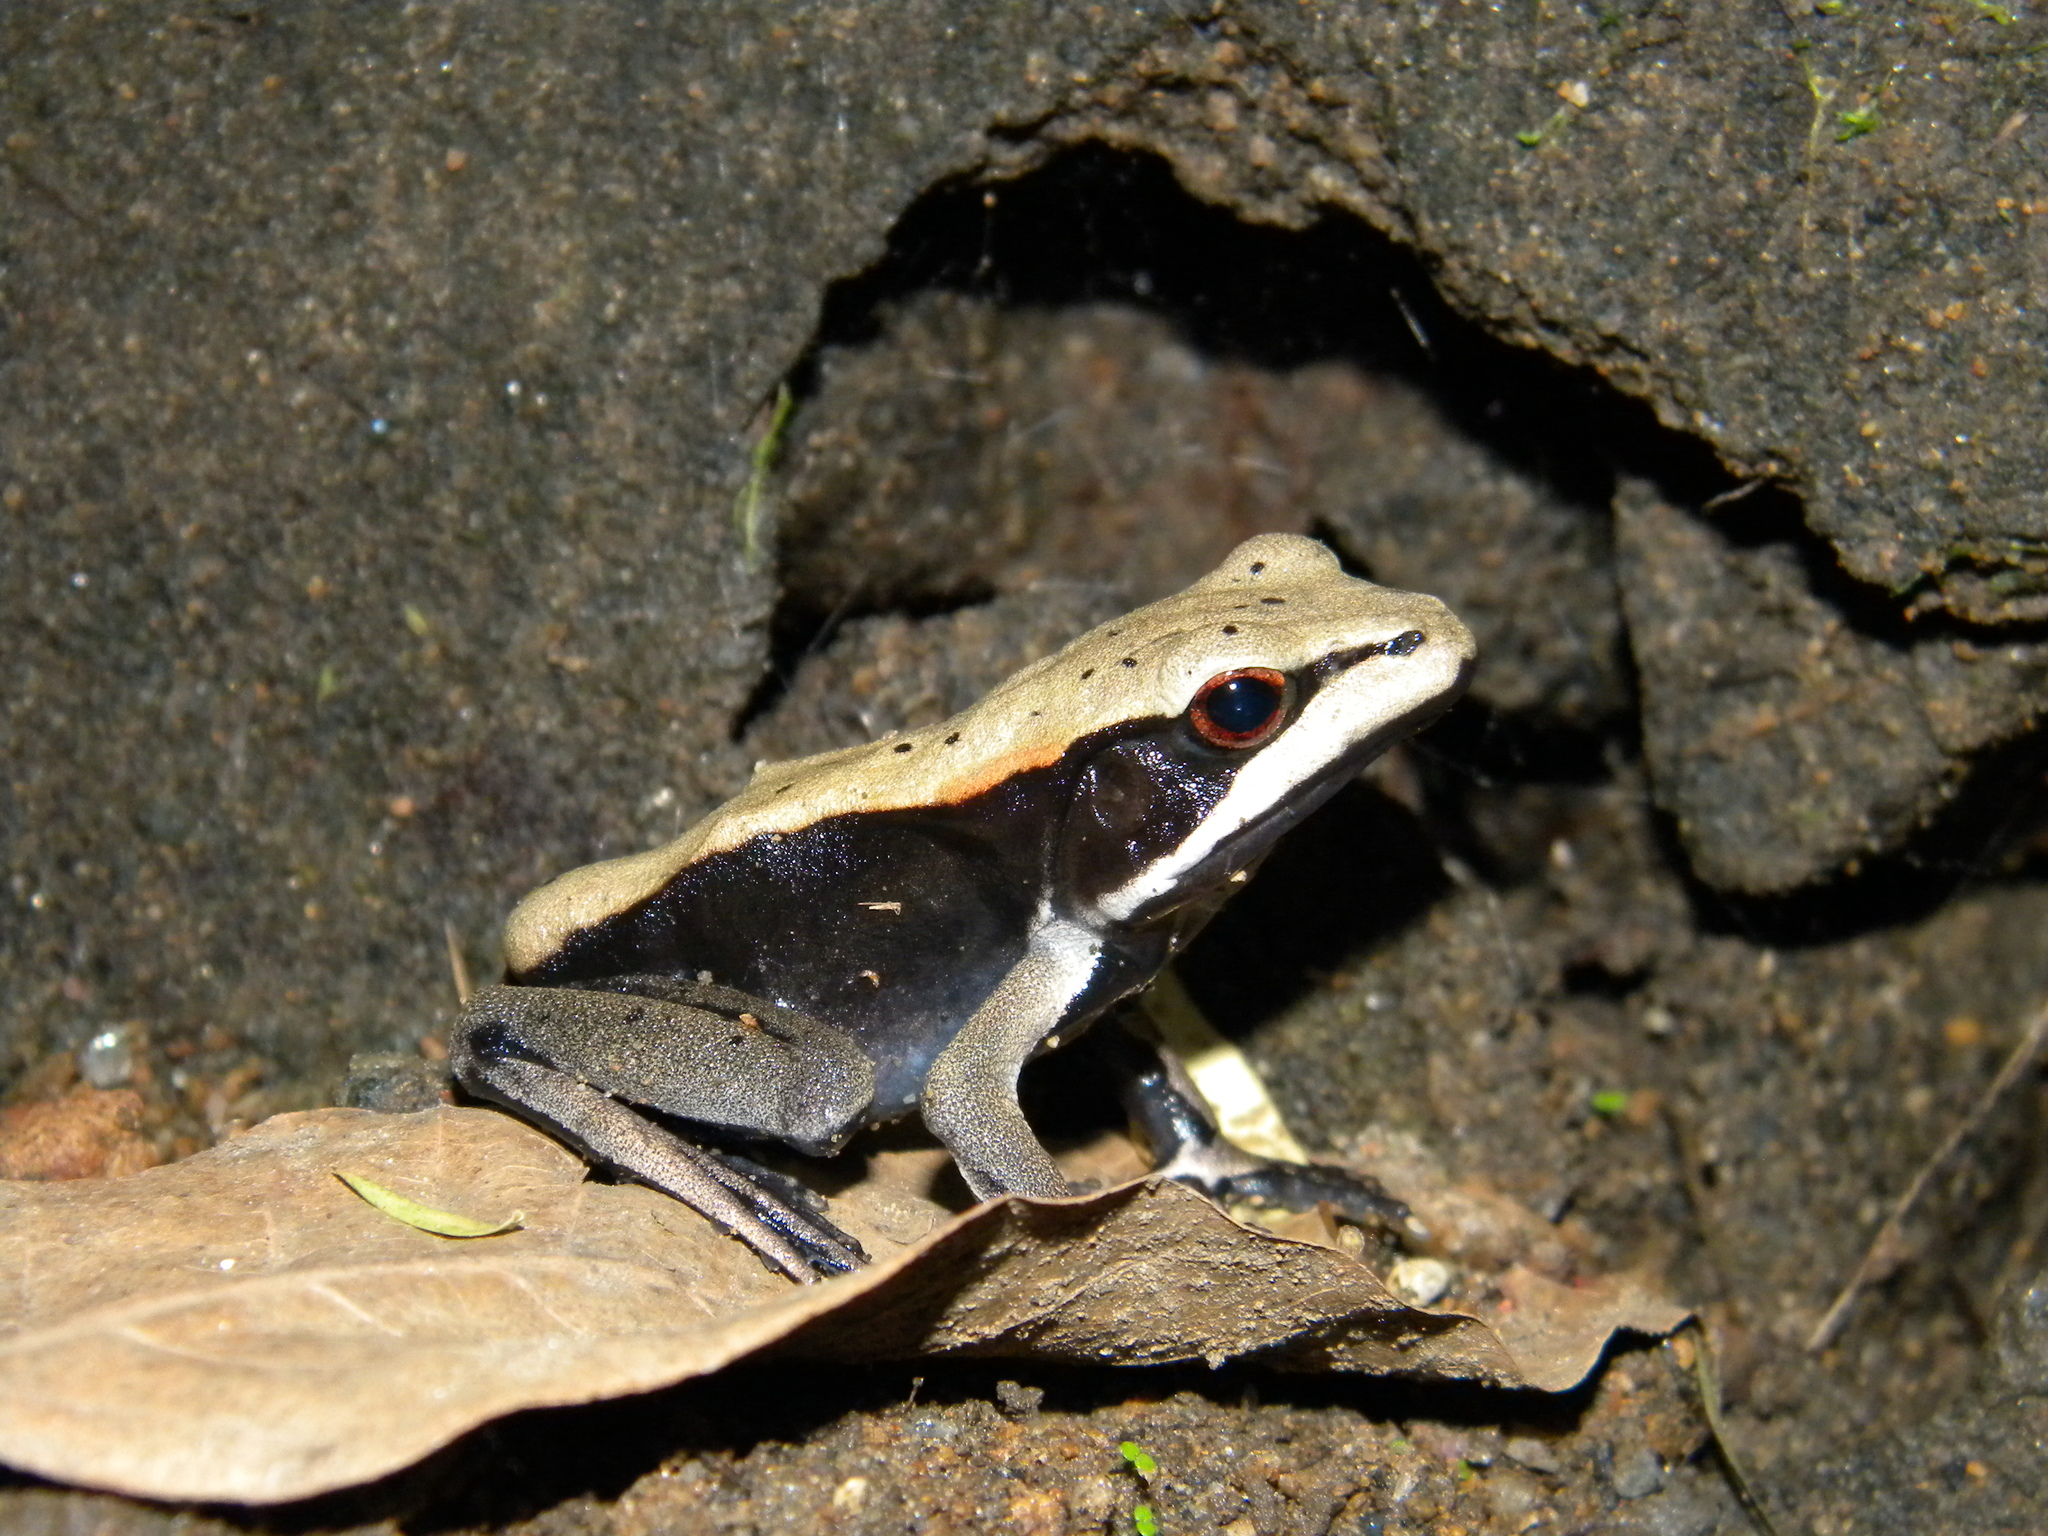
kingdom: Animalia
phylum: Chordata
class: Amphibia
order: Anura
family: Ranidae
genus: Clinotarsus
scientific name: Clinotarsus curtipes
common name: Bicoloured frog
